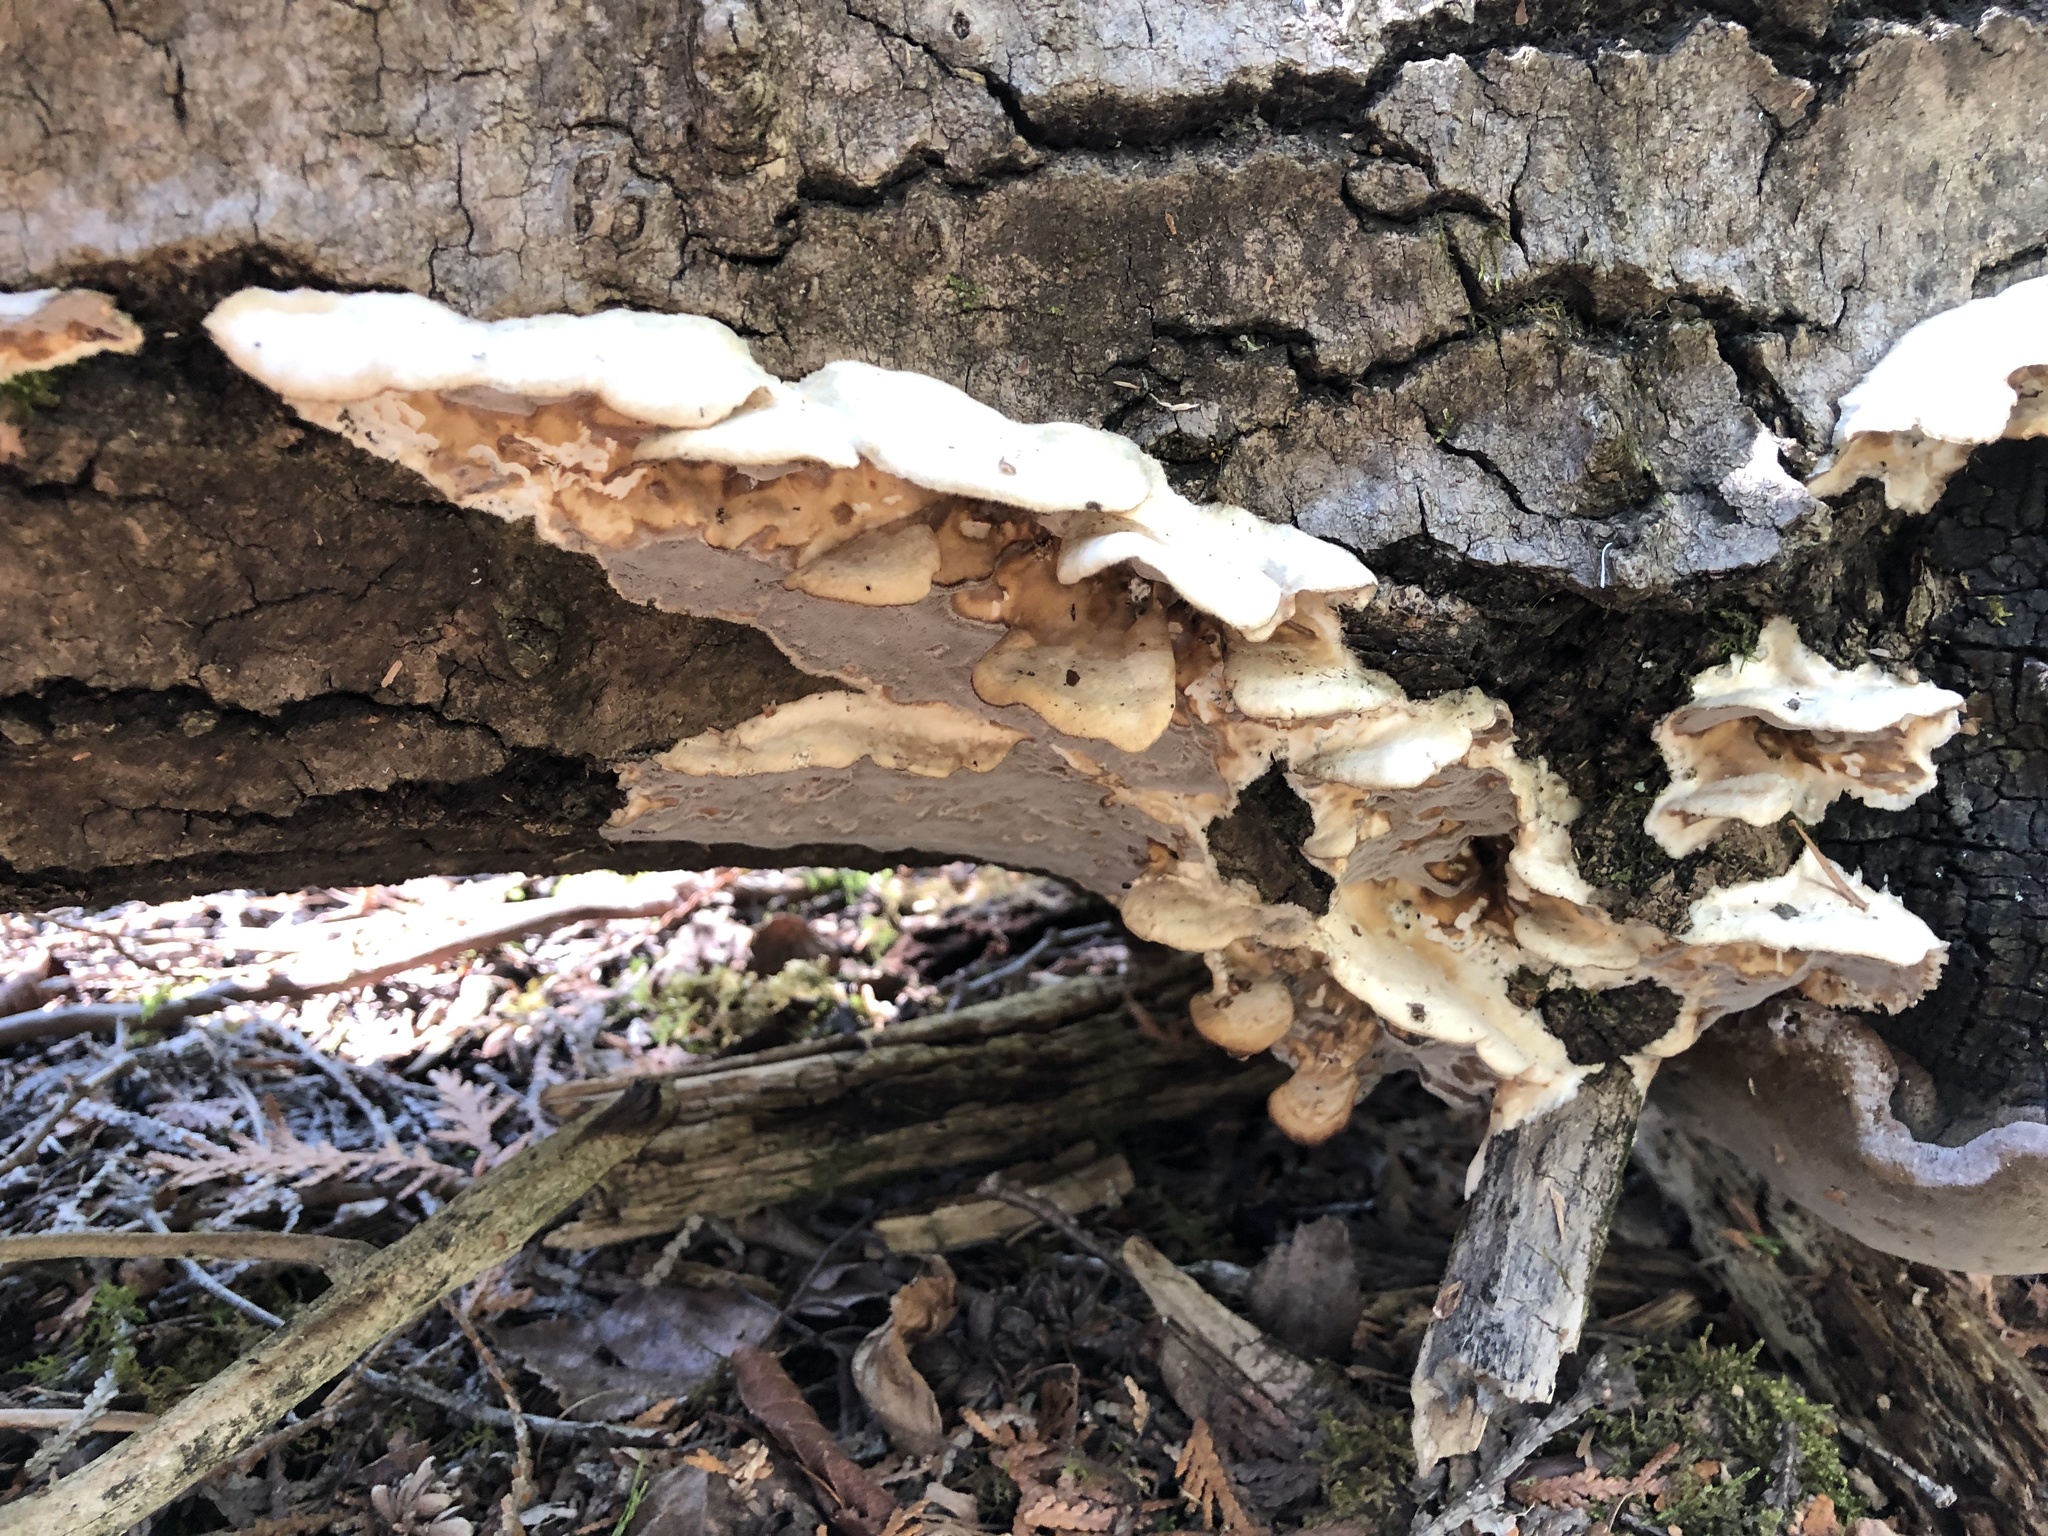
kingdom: Fungi
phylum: Basidiomycota
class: Agaricomycetes
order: Polyporales
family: Phanerochaetaceae
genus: Bjerkandera
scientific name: Bjerkandera adusta
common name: Smoky bracket
